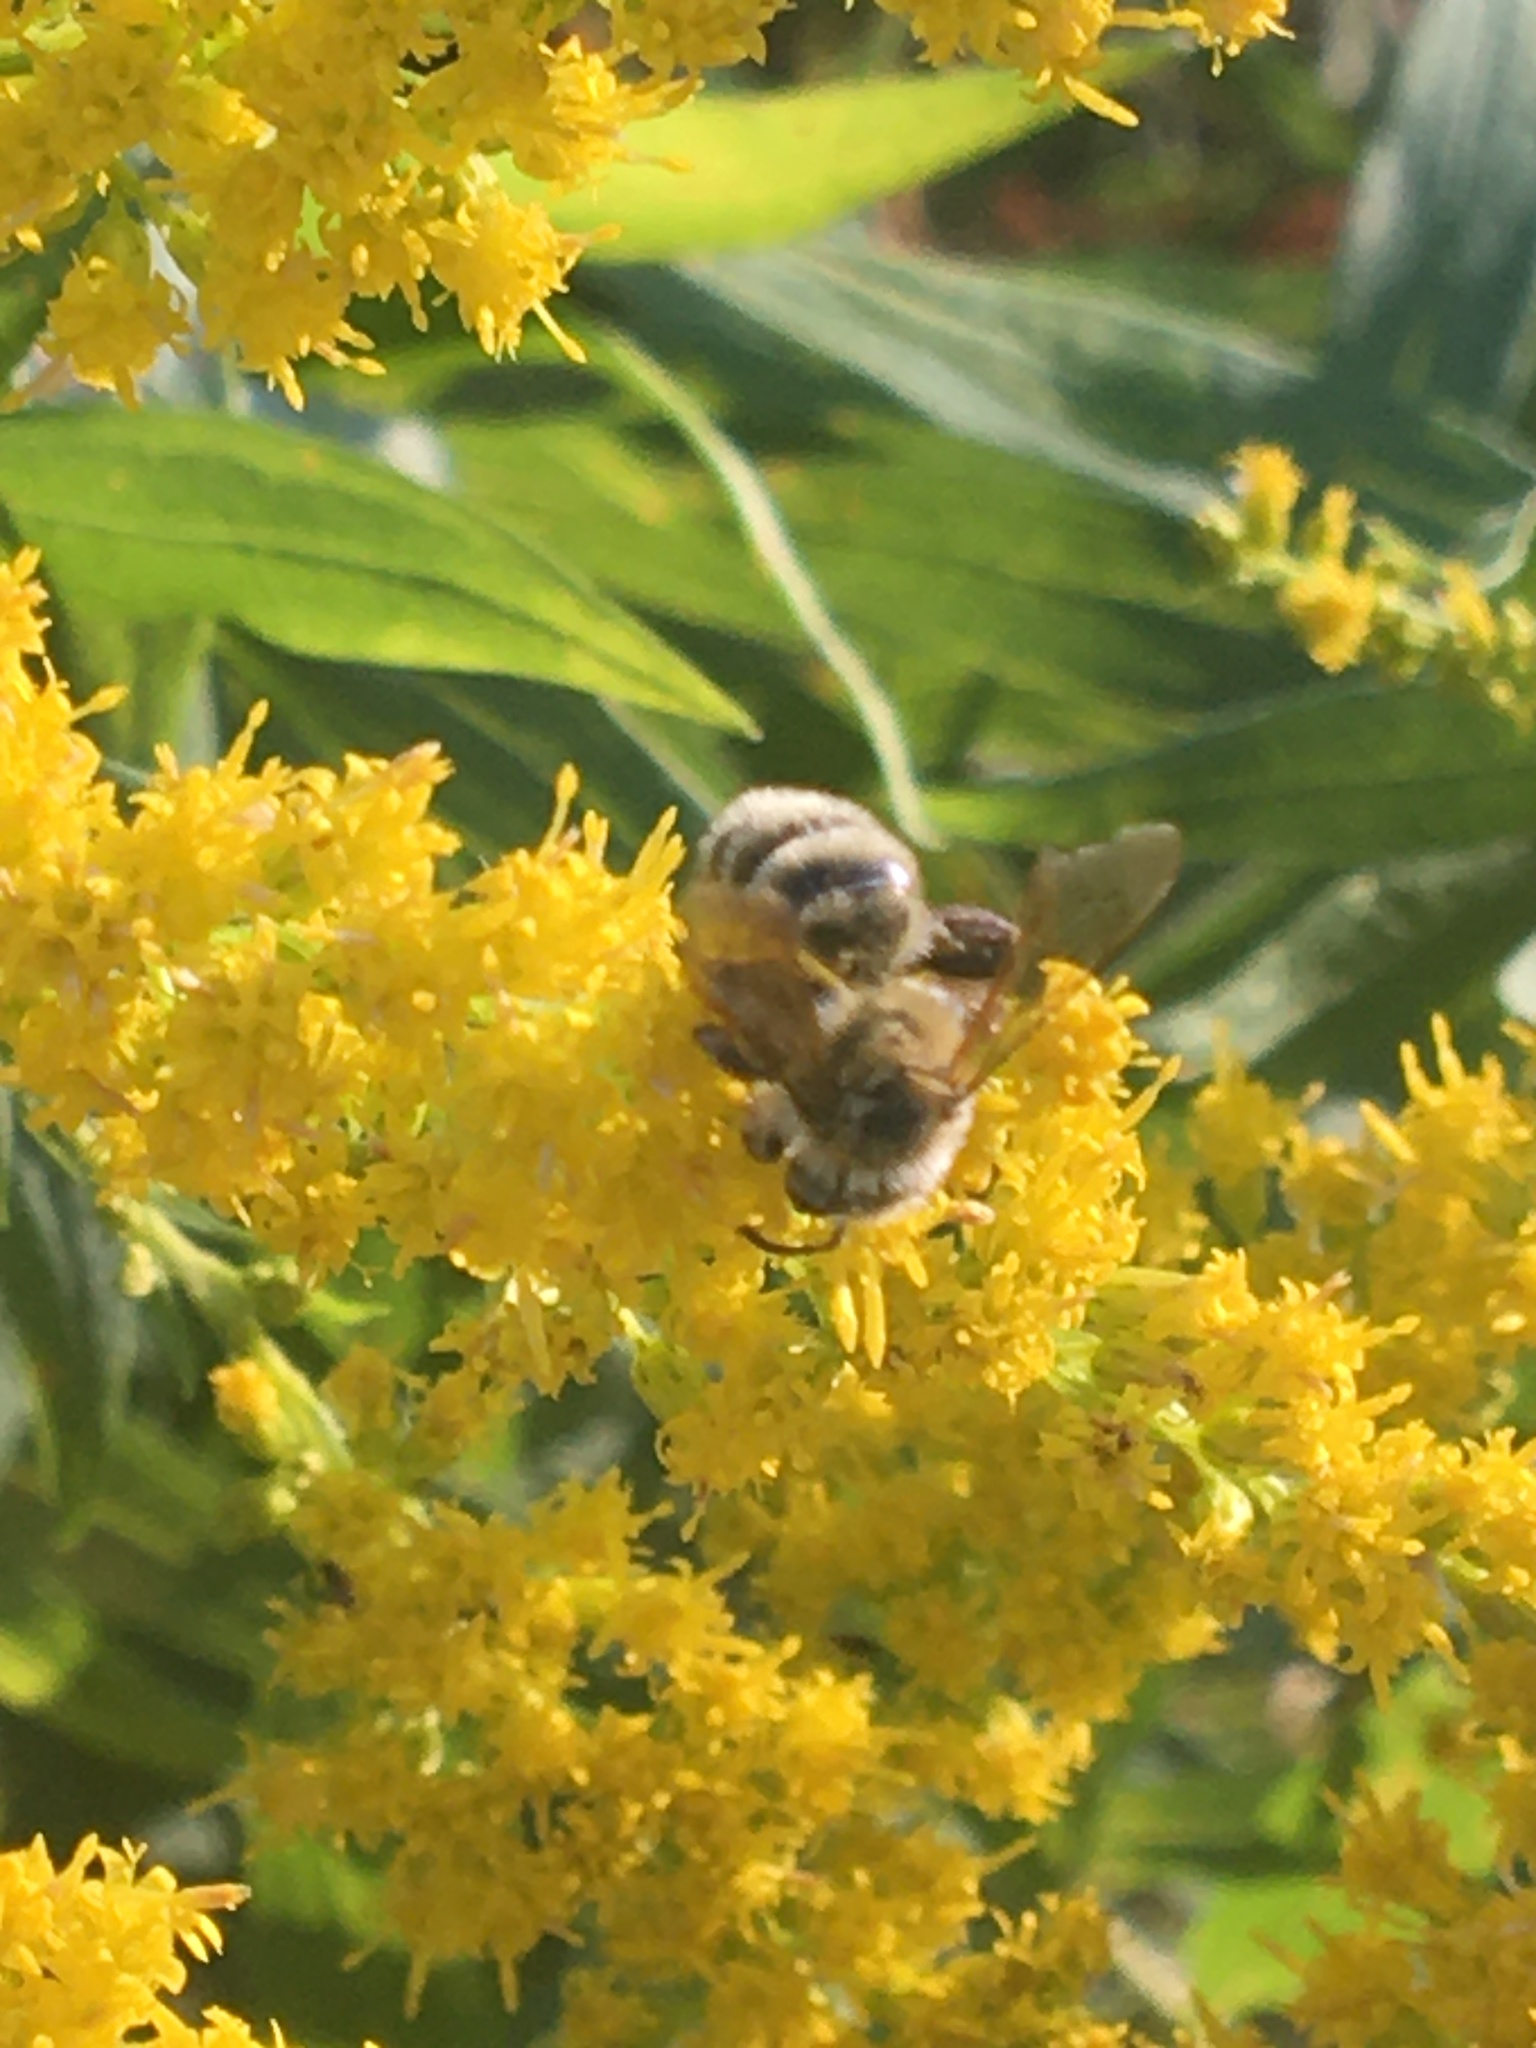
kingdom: Animalia
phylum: Arthropoda
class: Insecta
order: Hymenoptera
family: Andrenidae
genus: Andrena
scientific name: Andrena hirticincta
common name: Hairy-banded mining bee
